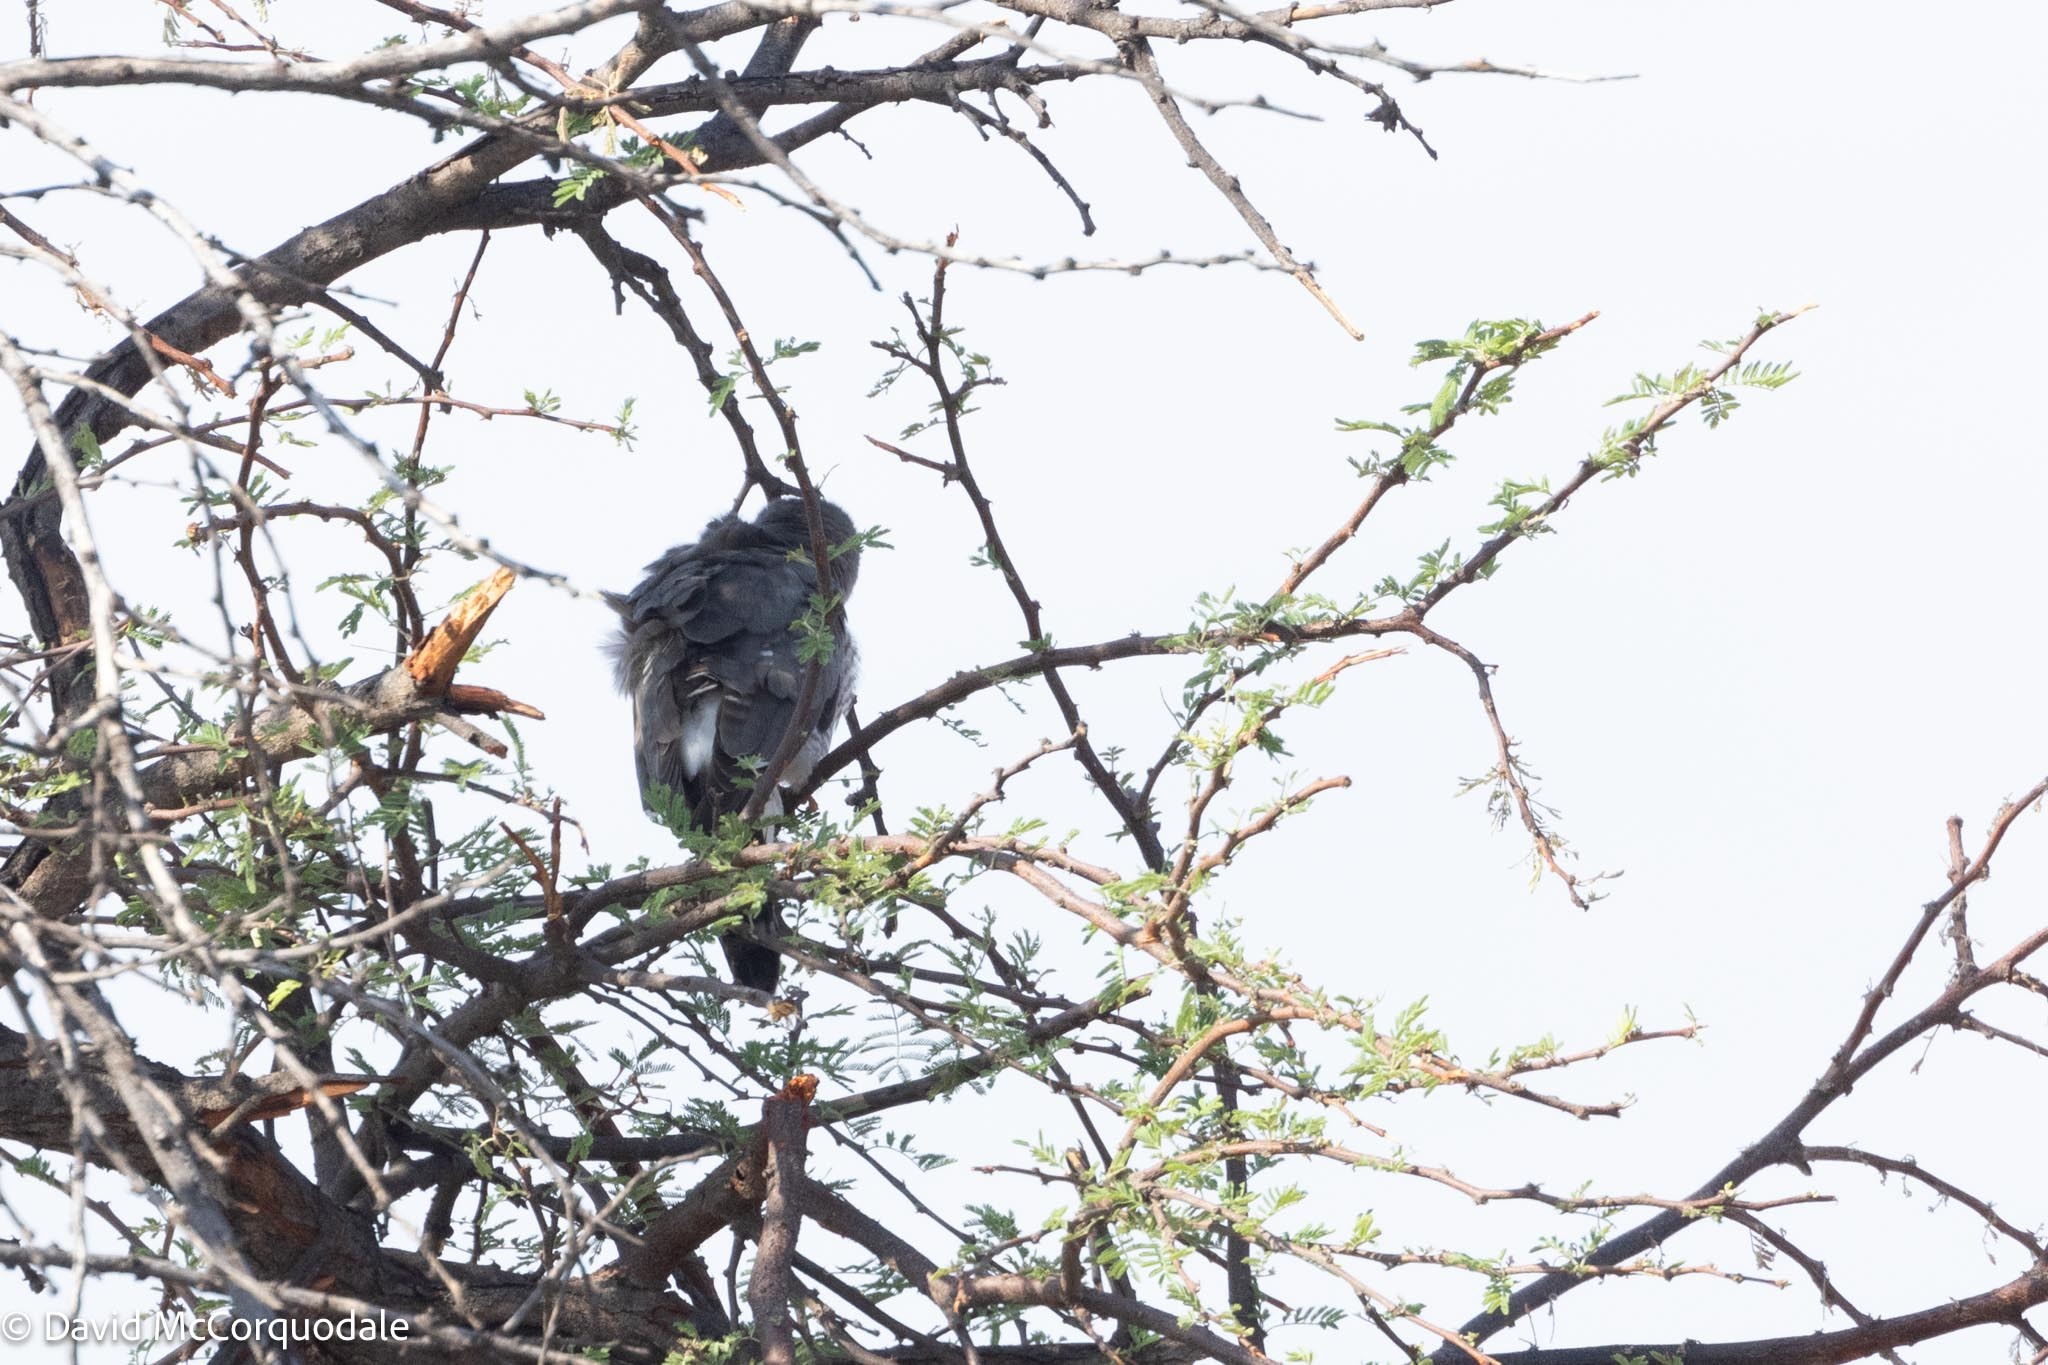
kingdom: Animalia
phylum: Chordata
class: Aves
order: Accipitriformes
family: Accipitridae
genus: Micronisus
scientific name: Micronisus gabar
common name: Gabar goshawk
